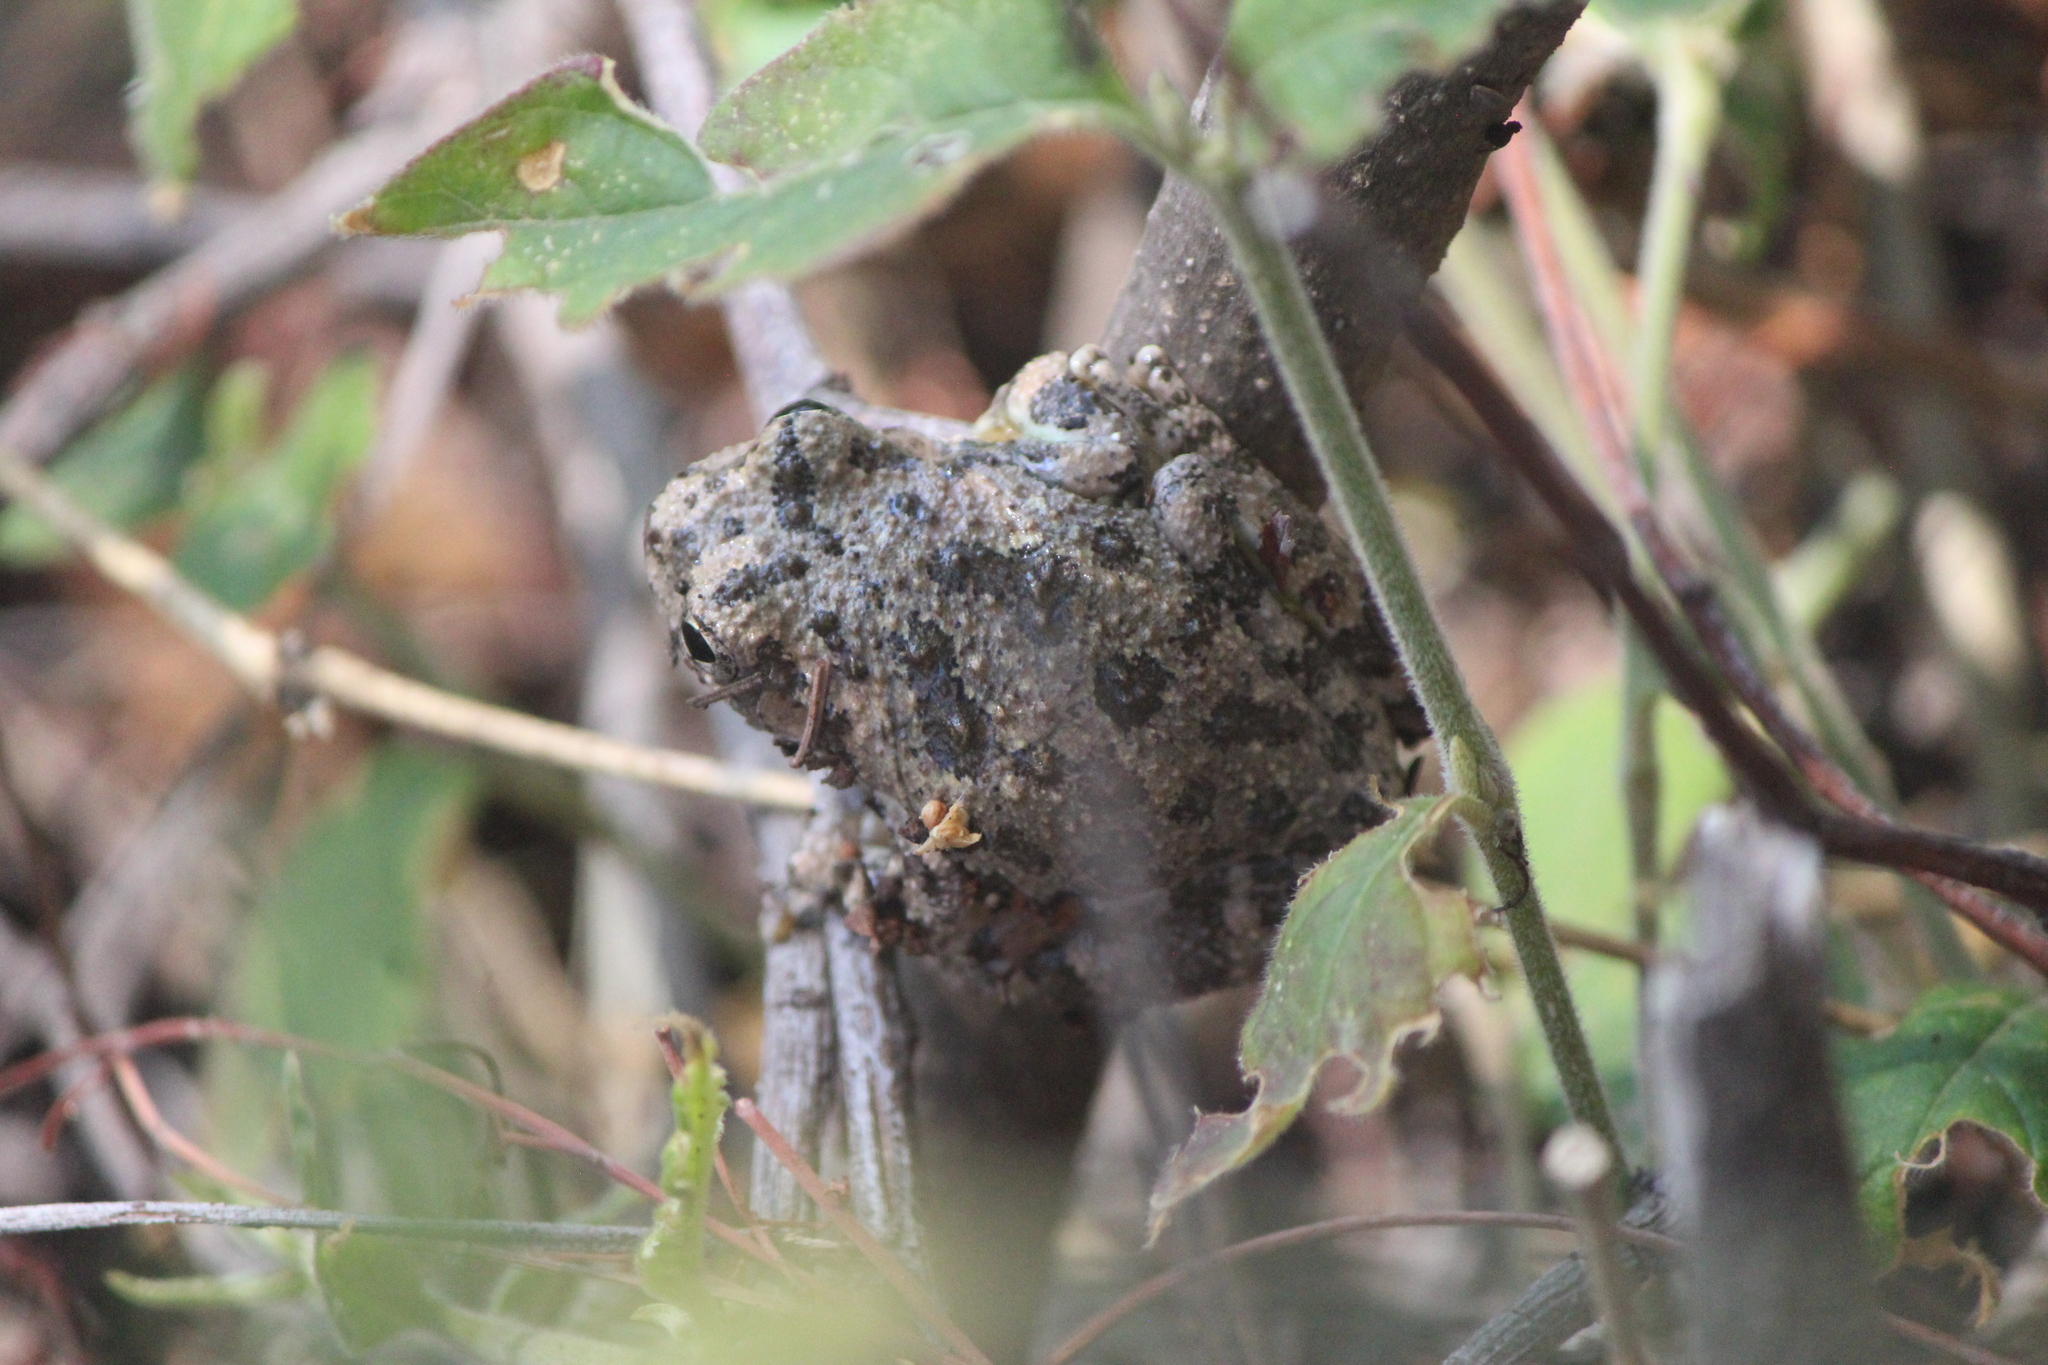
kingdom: Animalia
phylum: Chordata
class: Amphibia
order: Anura
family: Hylidae
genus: Dryophytes
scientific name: Dryophytes arenicolor
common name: Canyon treefrog
